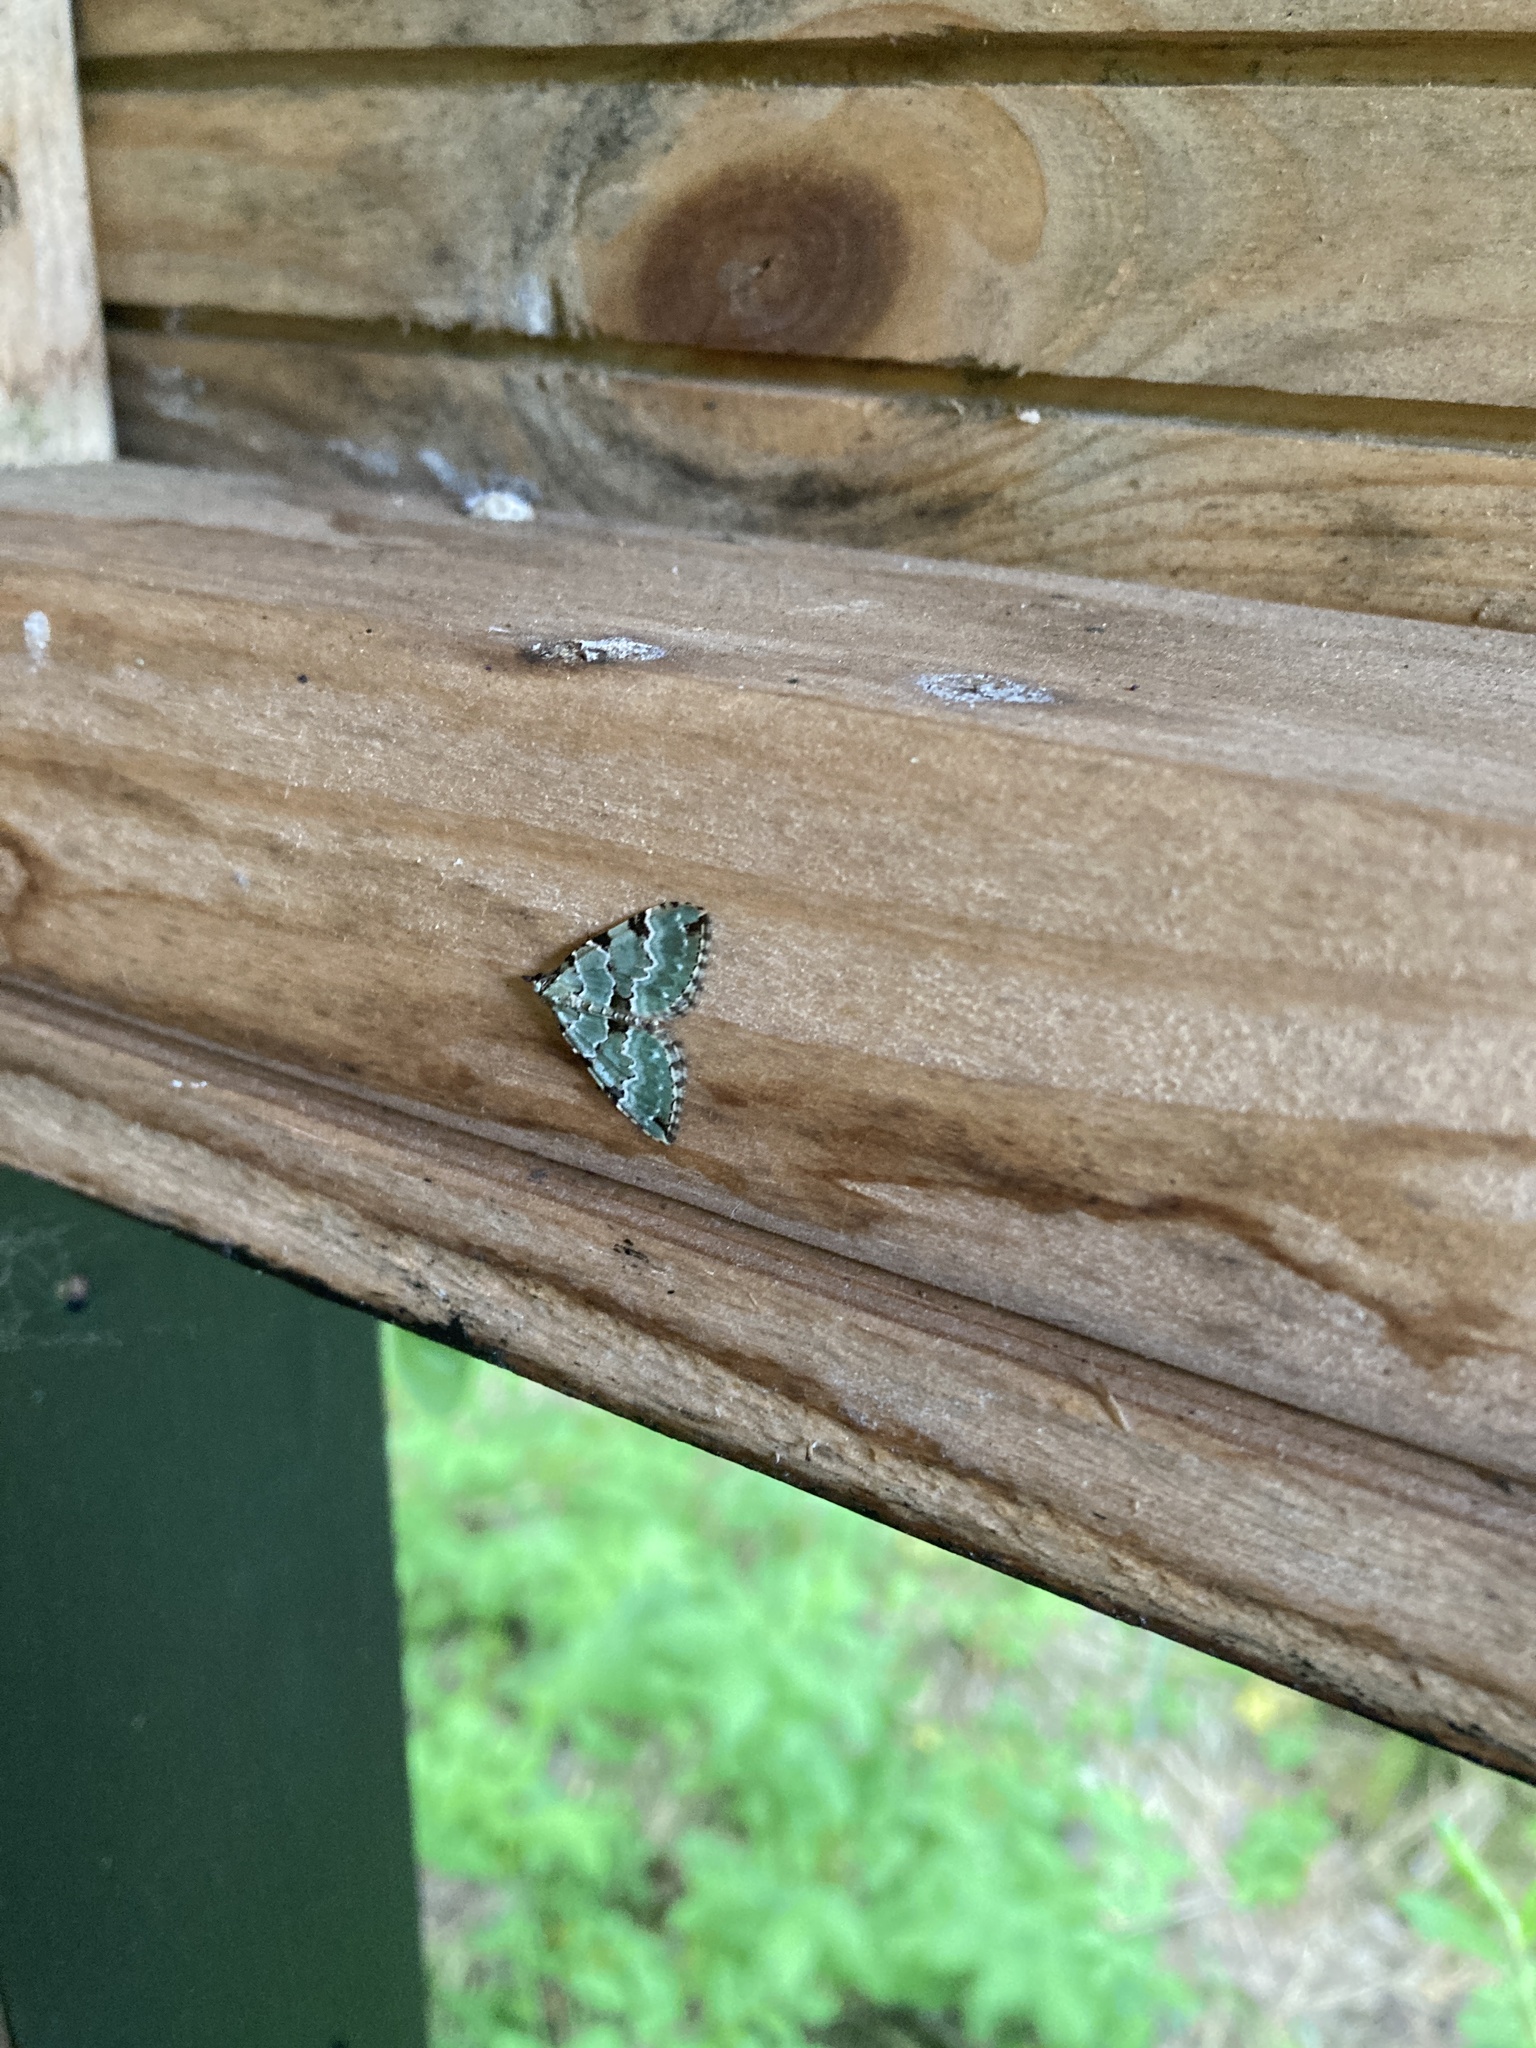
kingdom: Animalia
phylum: Arthropoda
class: Insecta
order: Lepidoptera
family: Geometridae
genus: Colostygia
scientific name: Colostygia pectinataria
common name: Green carpet
